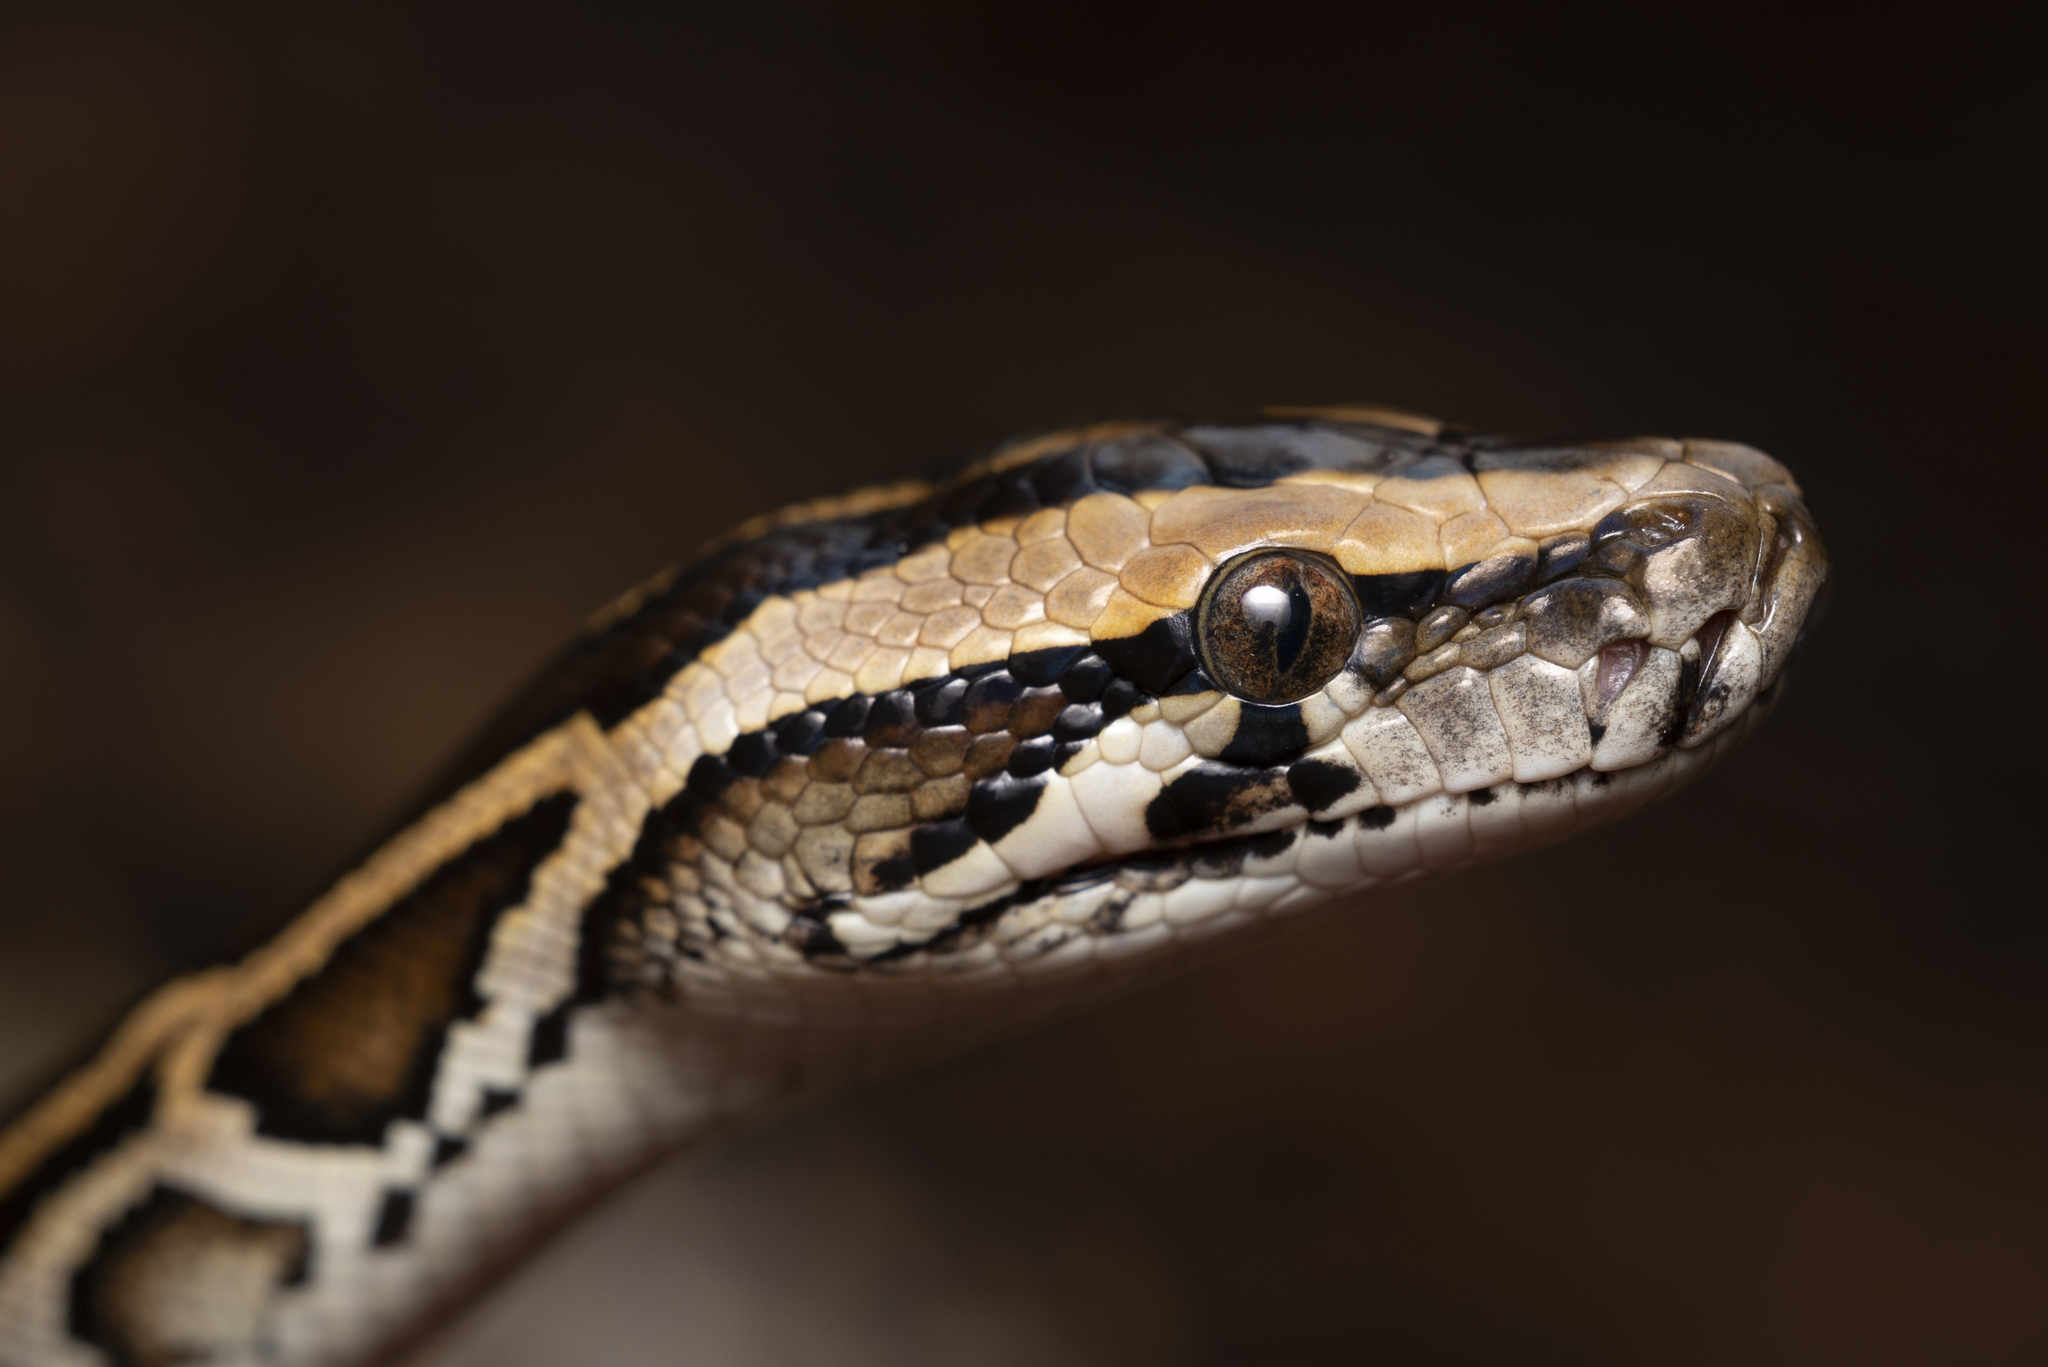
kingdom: Animalia
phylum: Chordata
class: Squamata
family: Pythonidae
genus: Python
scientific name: Python bivittatus
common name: Burmese python
